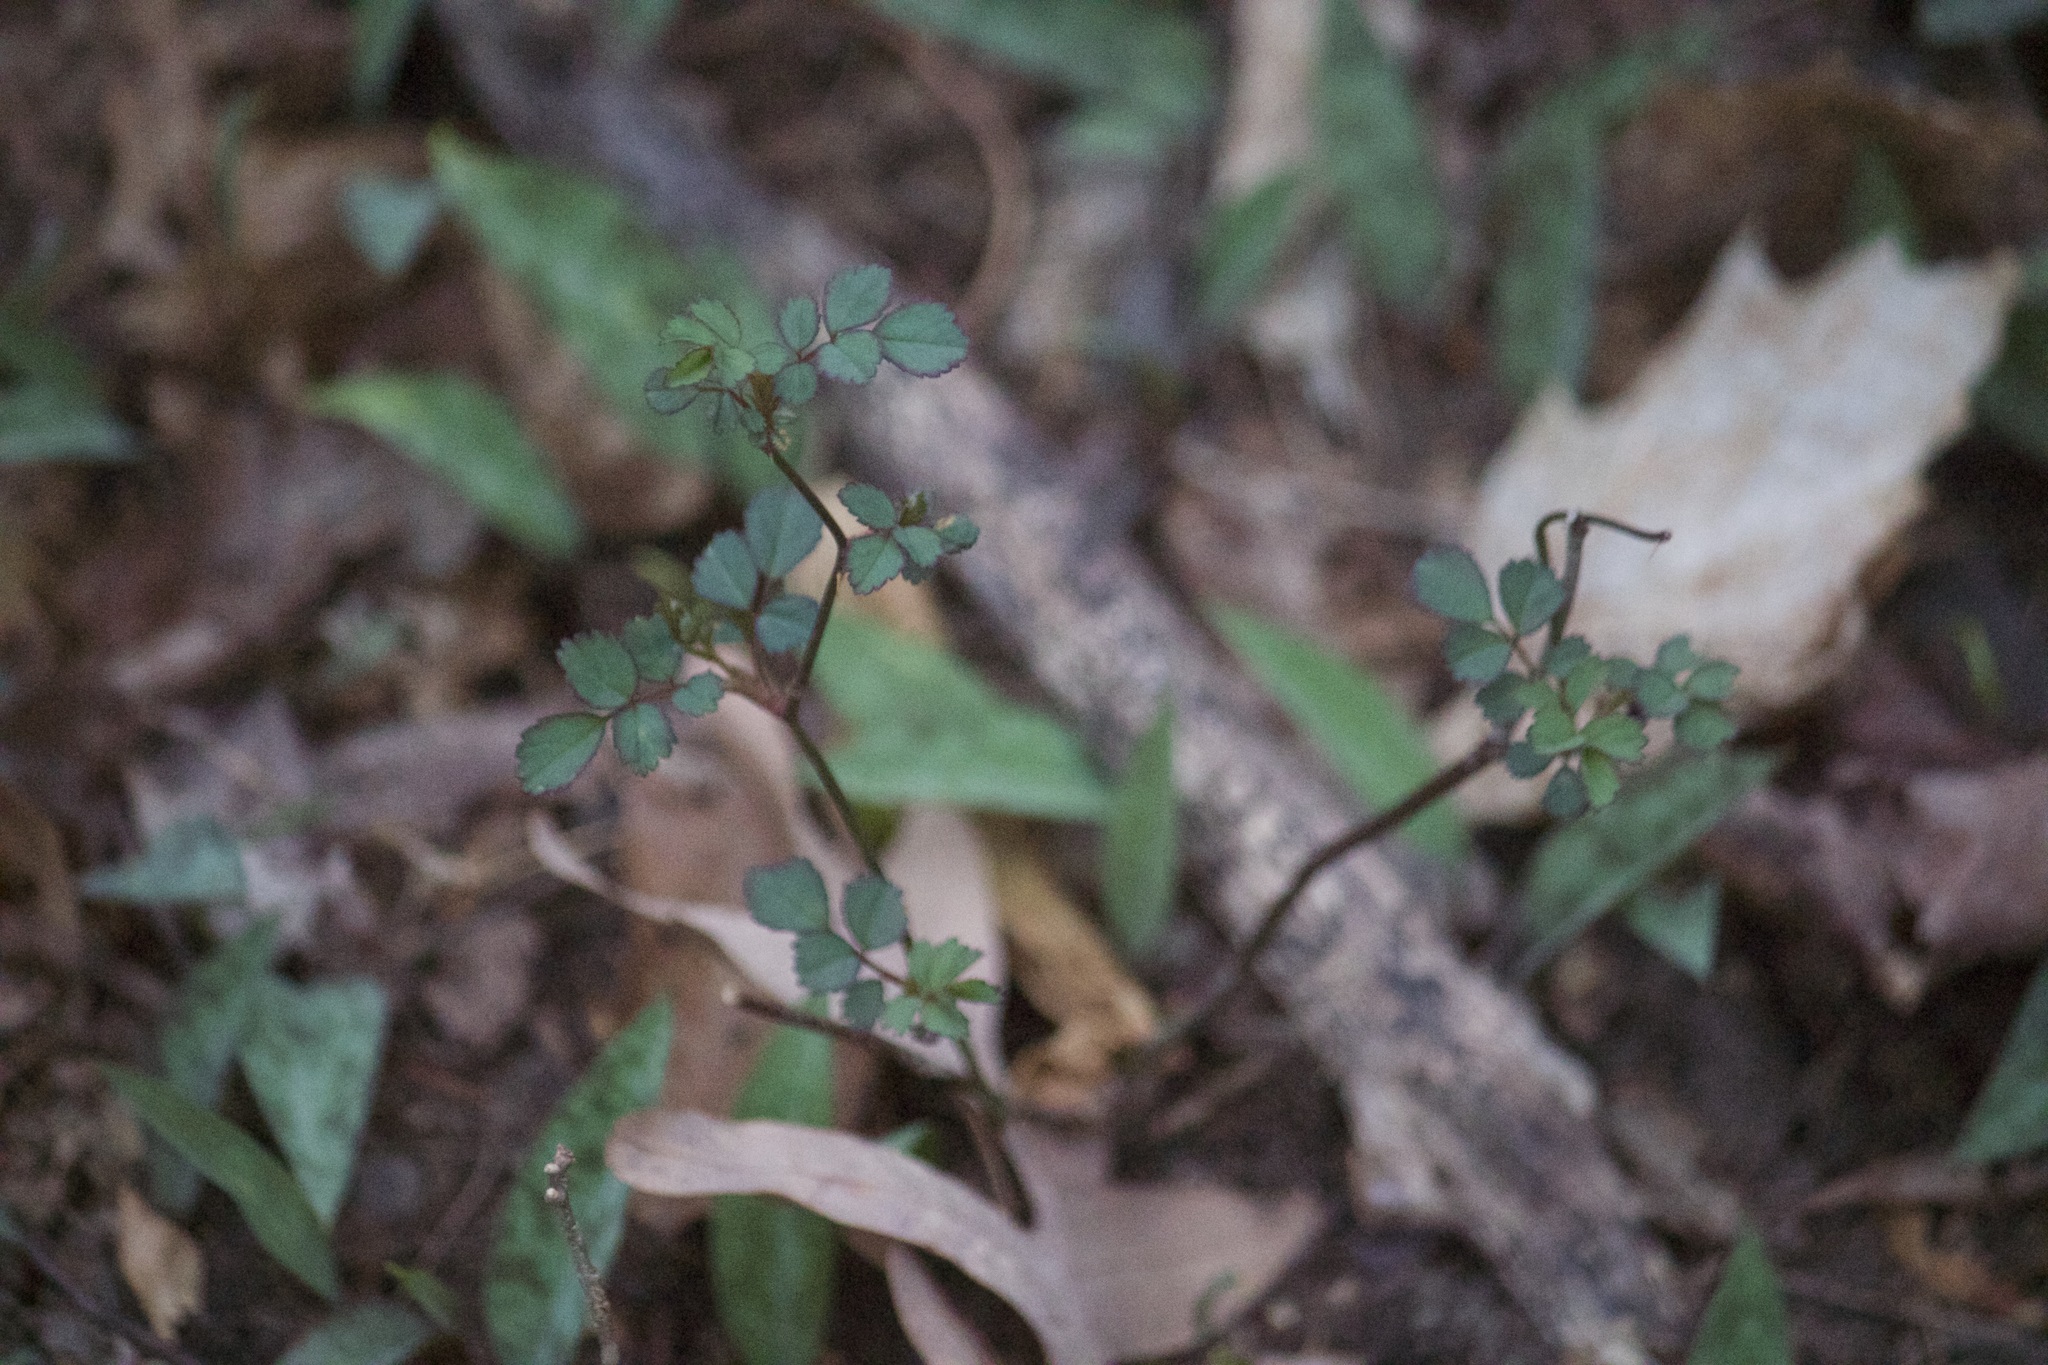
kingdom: Plantae
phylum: Tracheophyta
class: Magnoliopsida
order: Rosales
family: Rosaceae
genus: Rosa
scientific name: Rosa multiflora
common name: Multiflora rose
